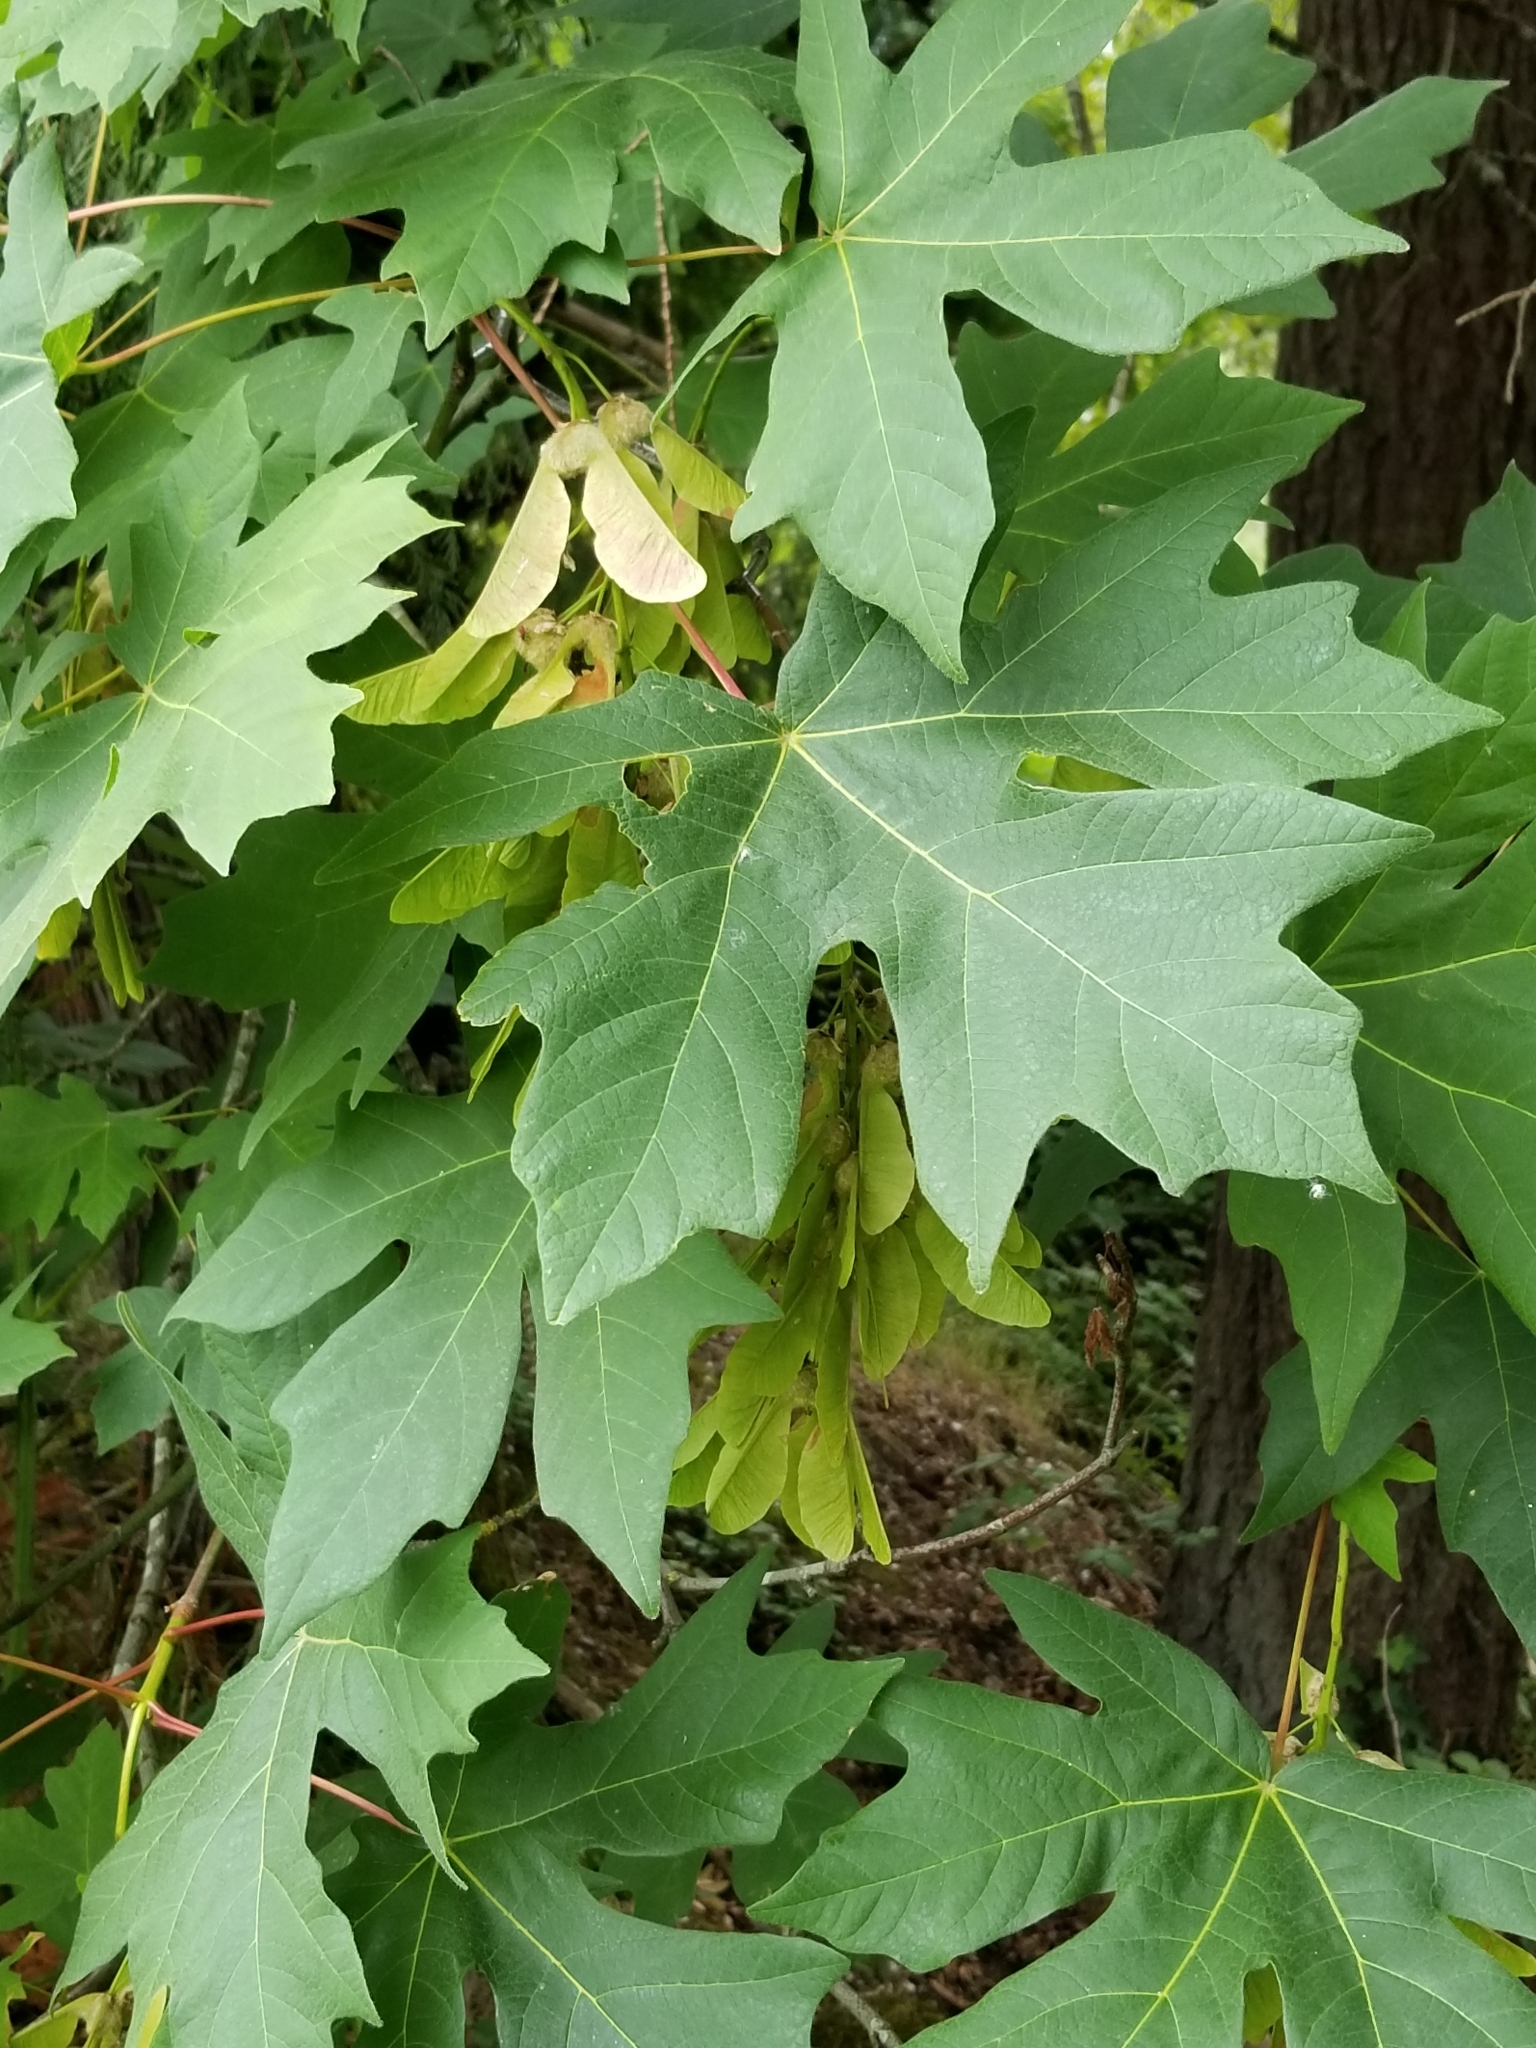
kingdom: Plantae
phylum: Tracheophyta
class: Magnoliopsida
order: Sapindales
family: Sapindaceae
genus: Acer
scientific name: Acer macrophyllum
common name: Oregon maple
